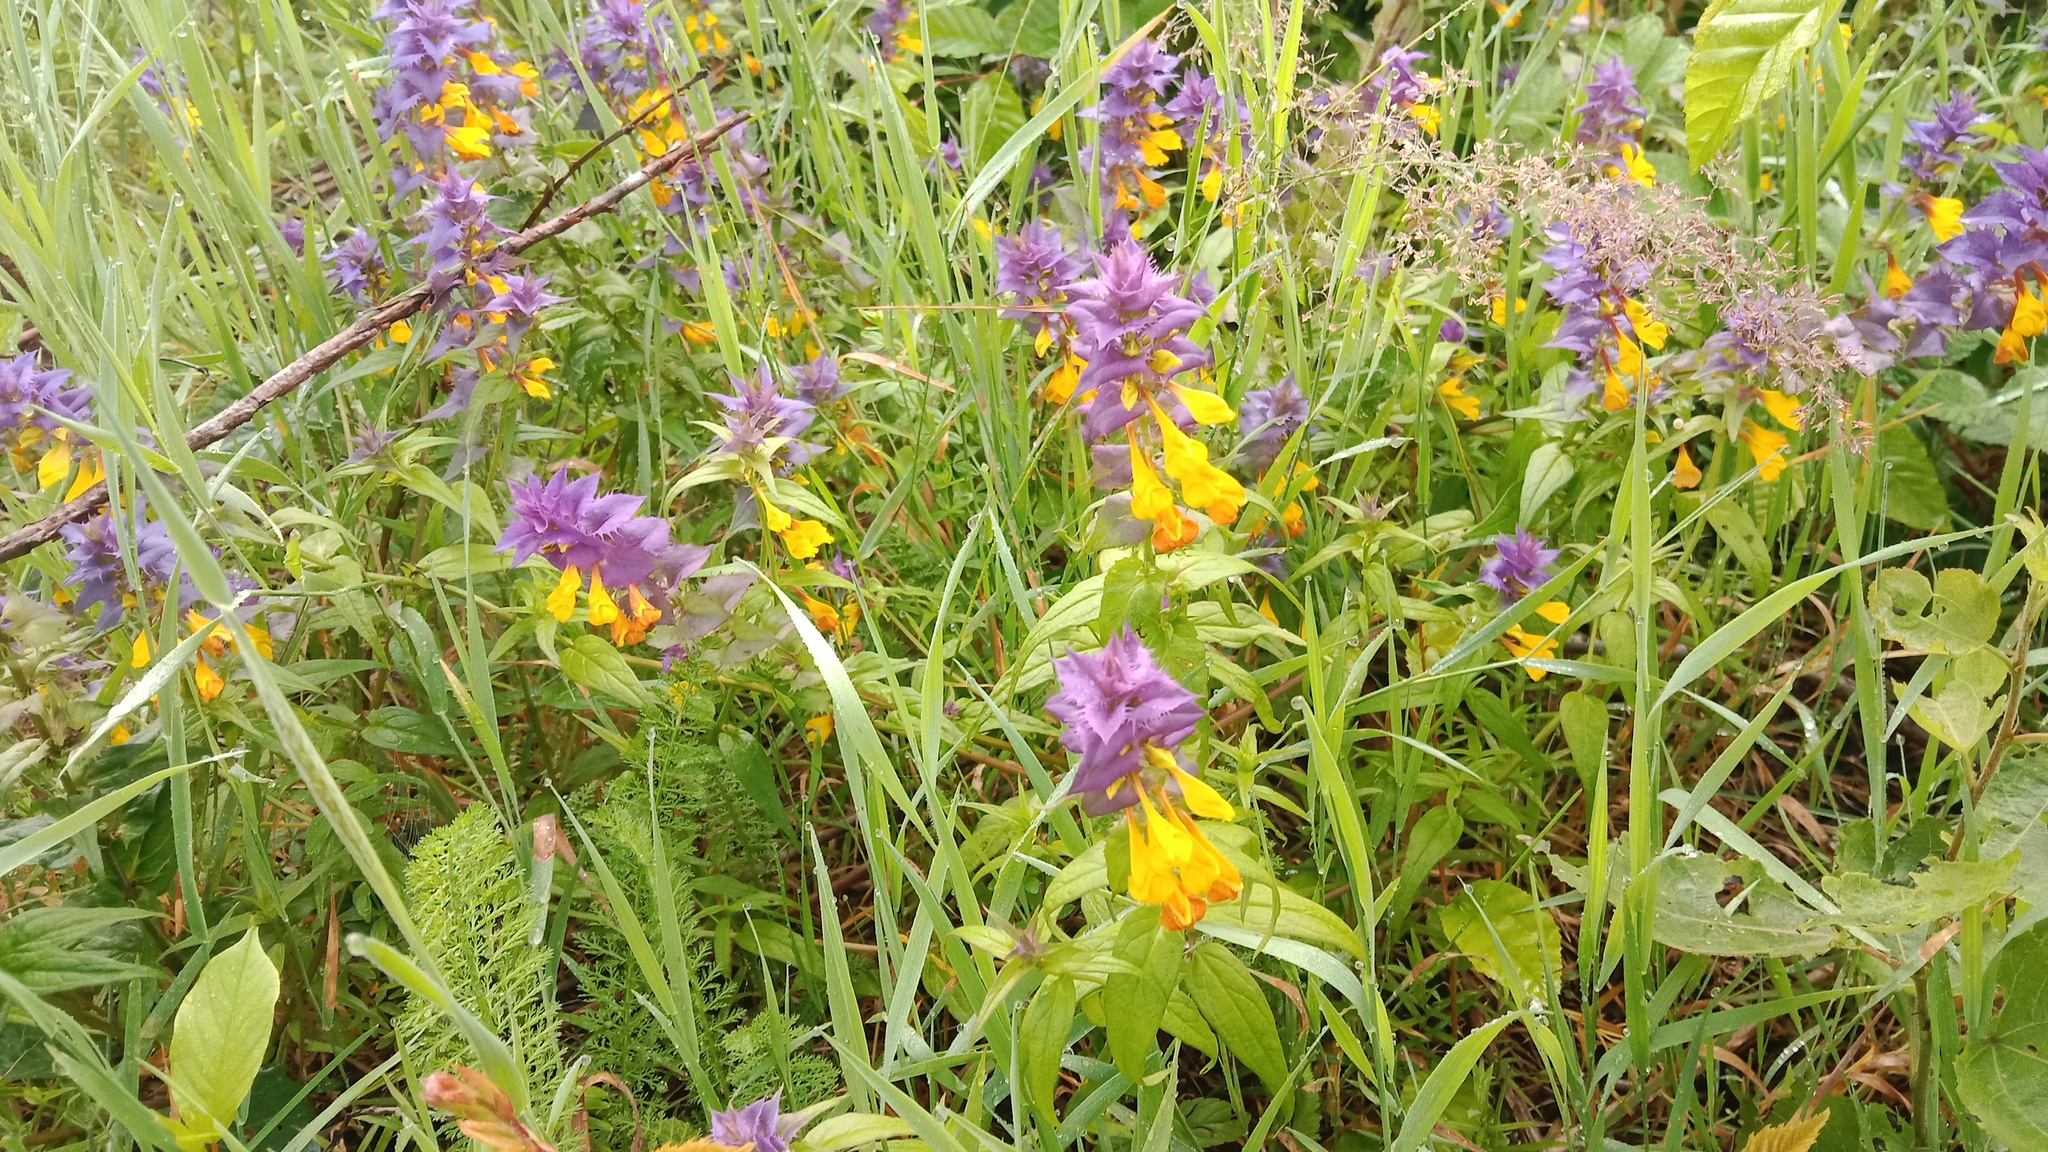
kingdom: Plantae
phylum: Tracheophyta
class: Magnoliopsida
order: Lamiales
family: Orobanchaceae
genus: Melampyrum
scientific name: Melampyrum nemorosum
